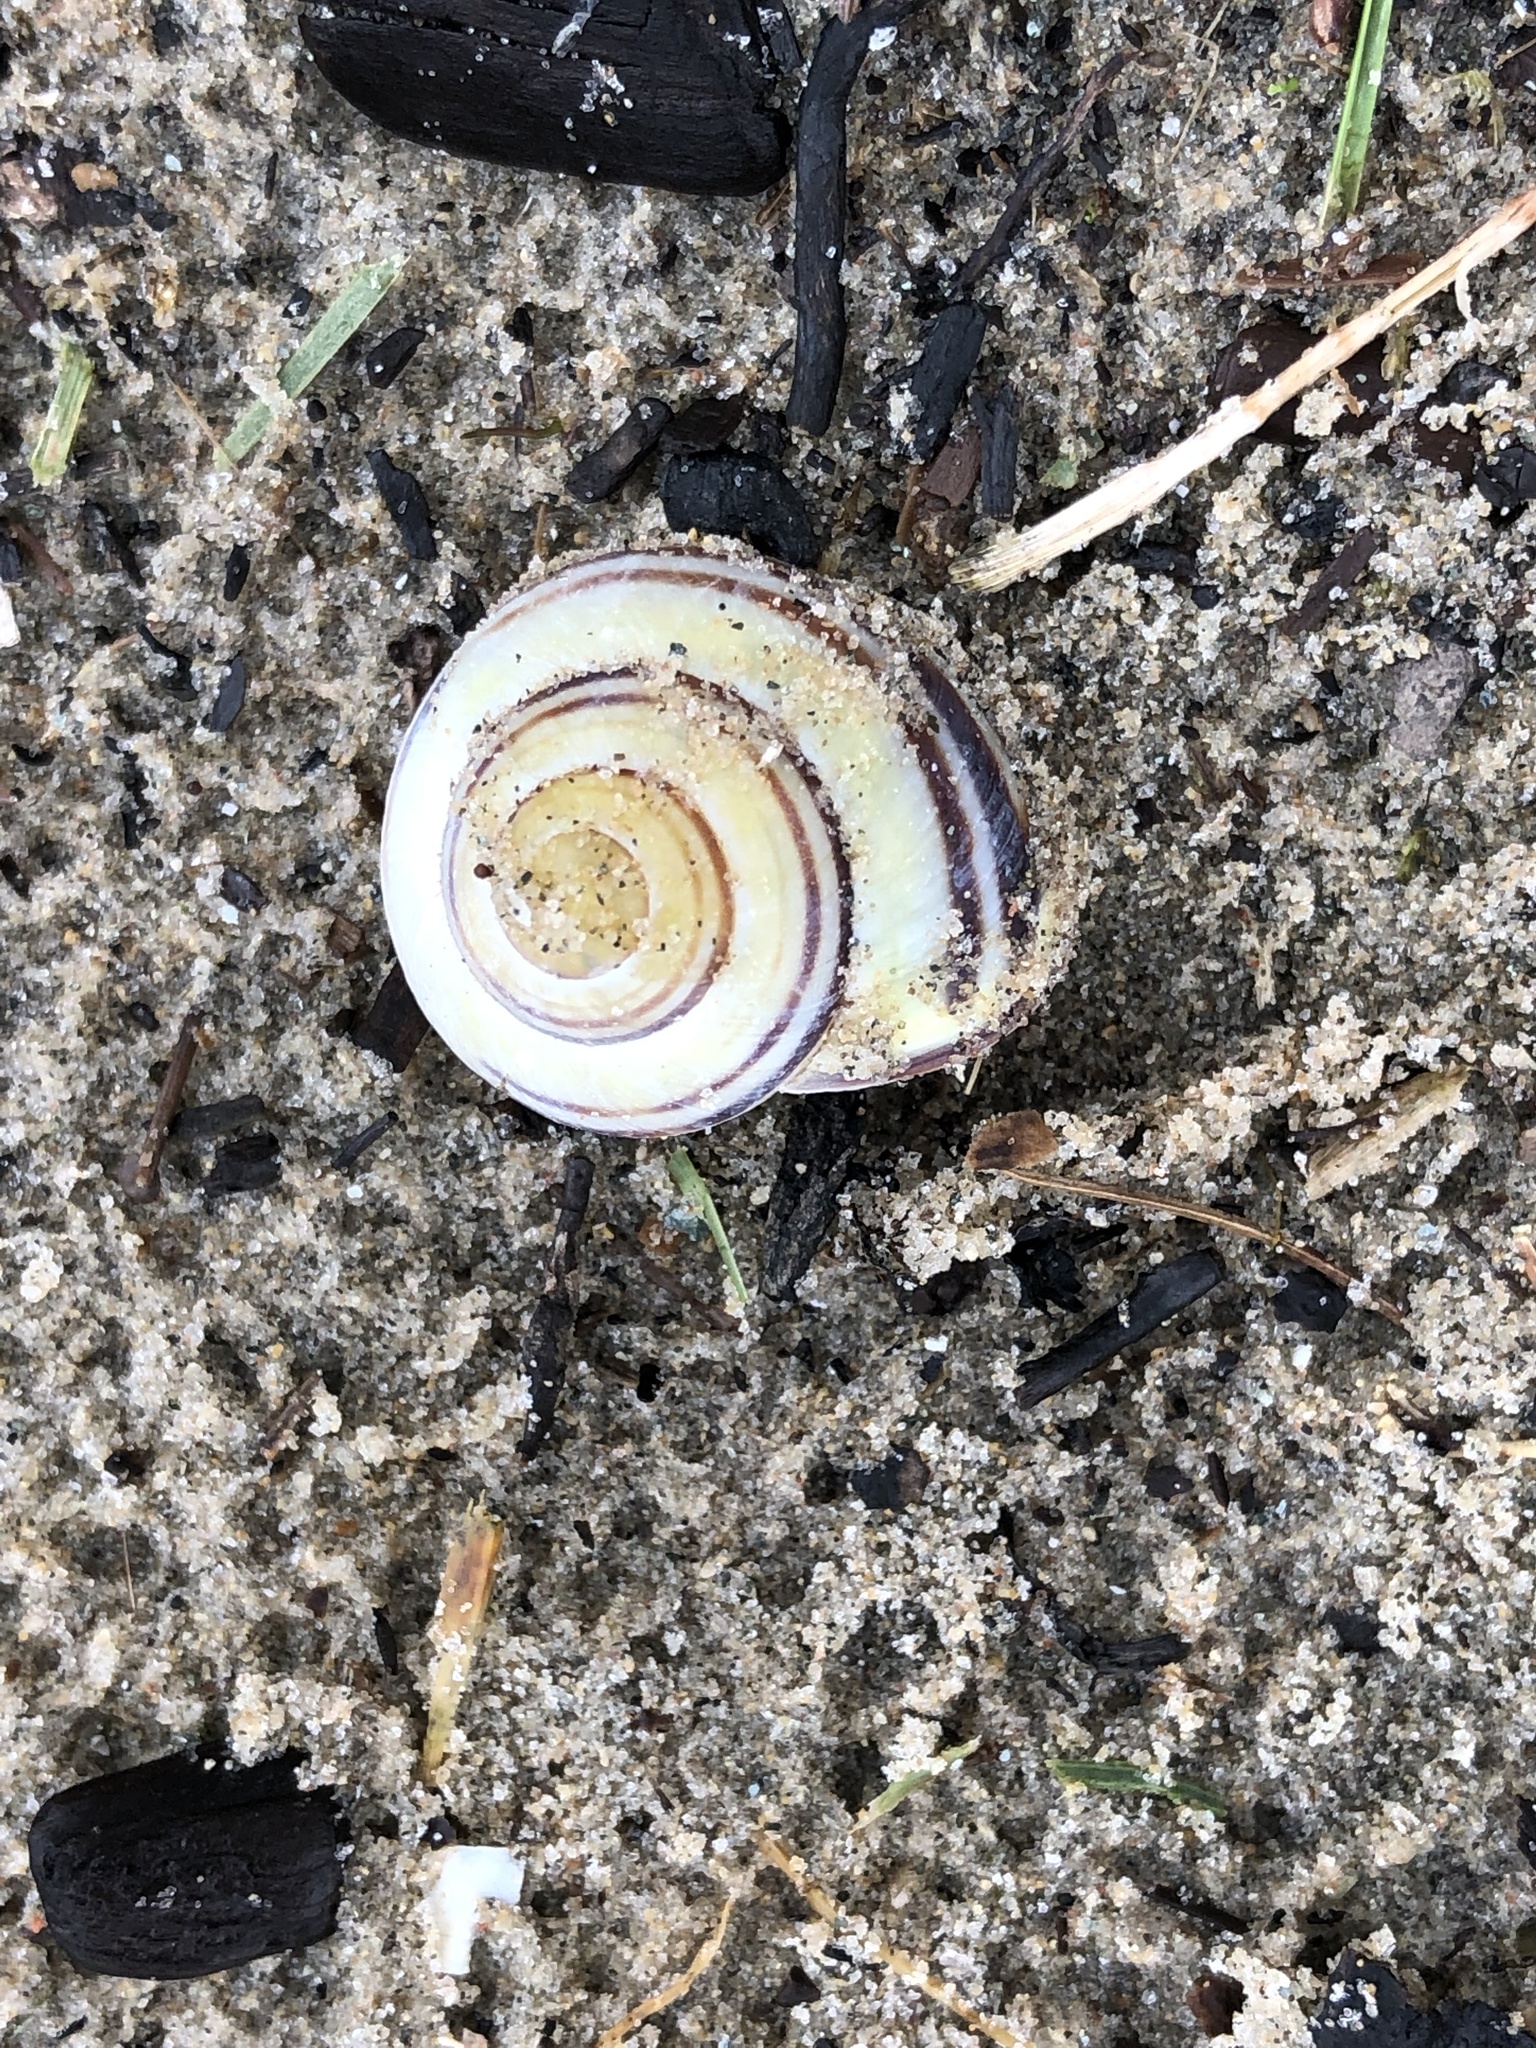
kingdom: Animalia
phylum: Mollusca
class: Gastropoda
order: Stylommatophora
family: Helicidae
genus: Cepaea
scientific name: Cepaea nemoralis
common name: Grovesnail
